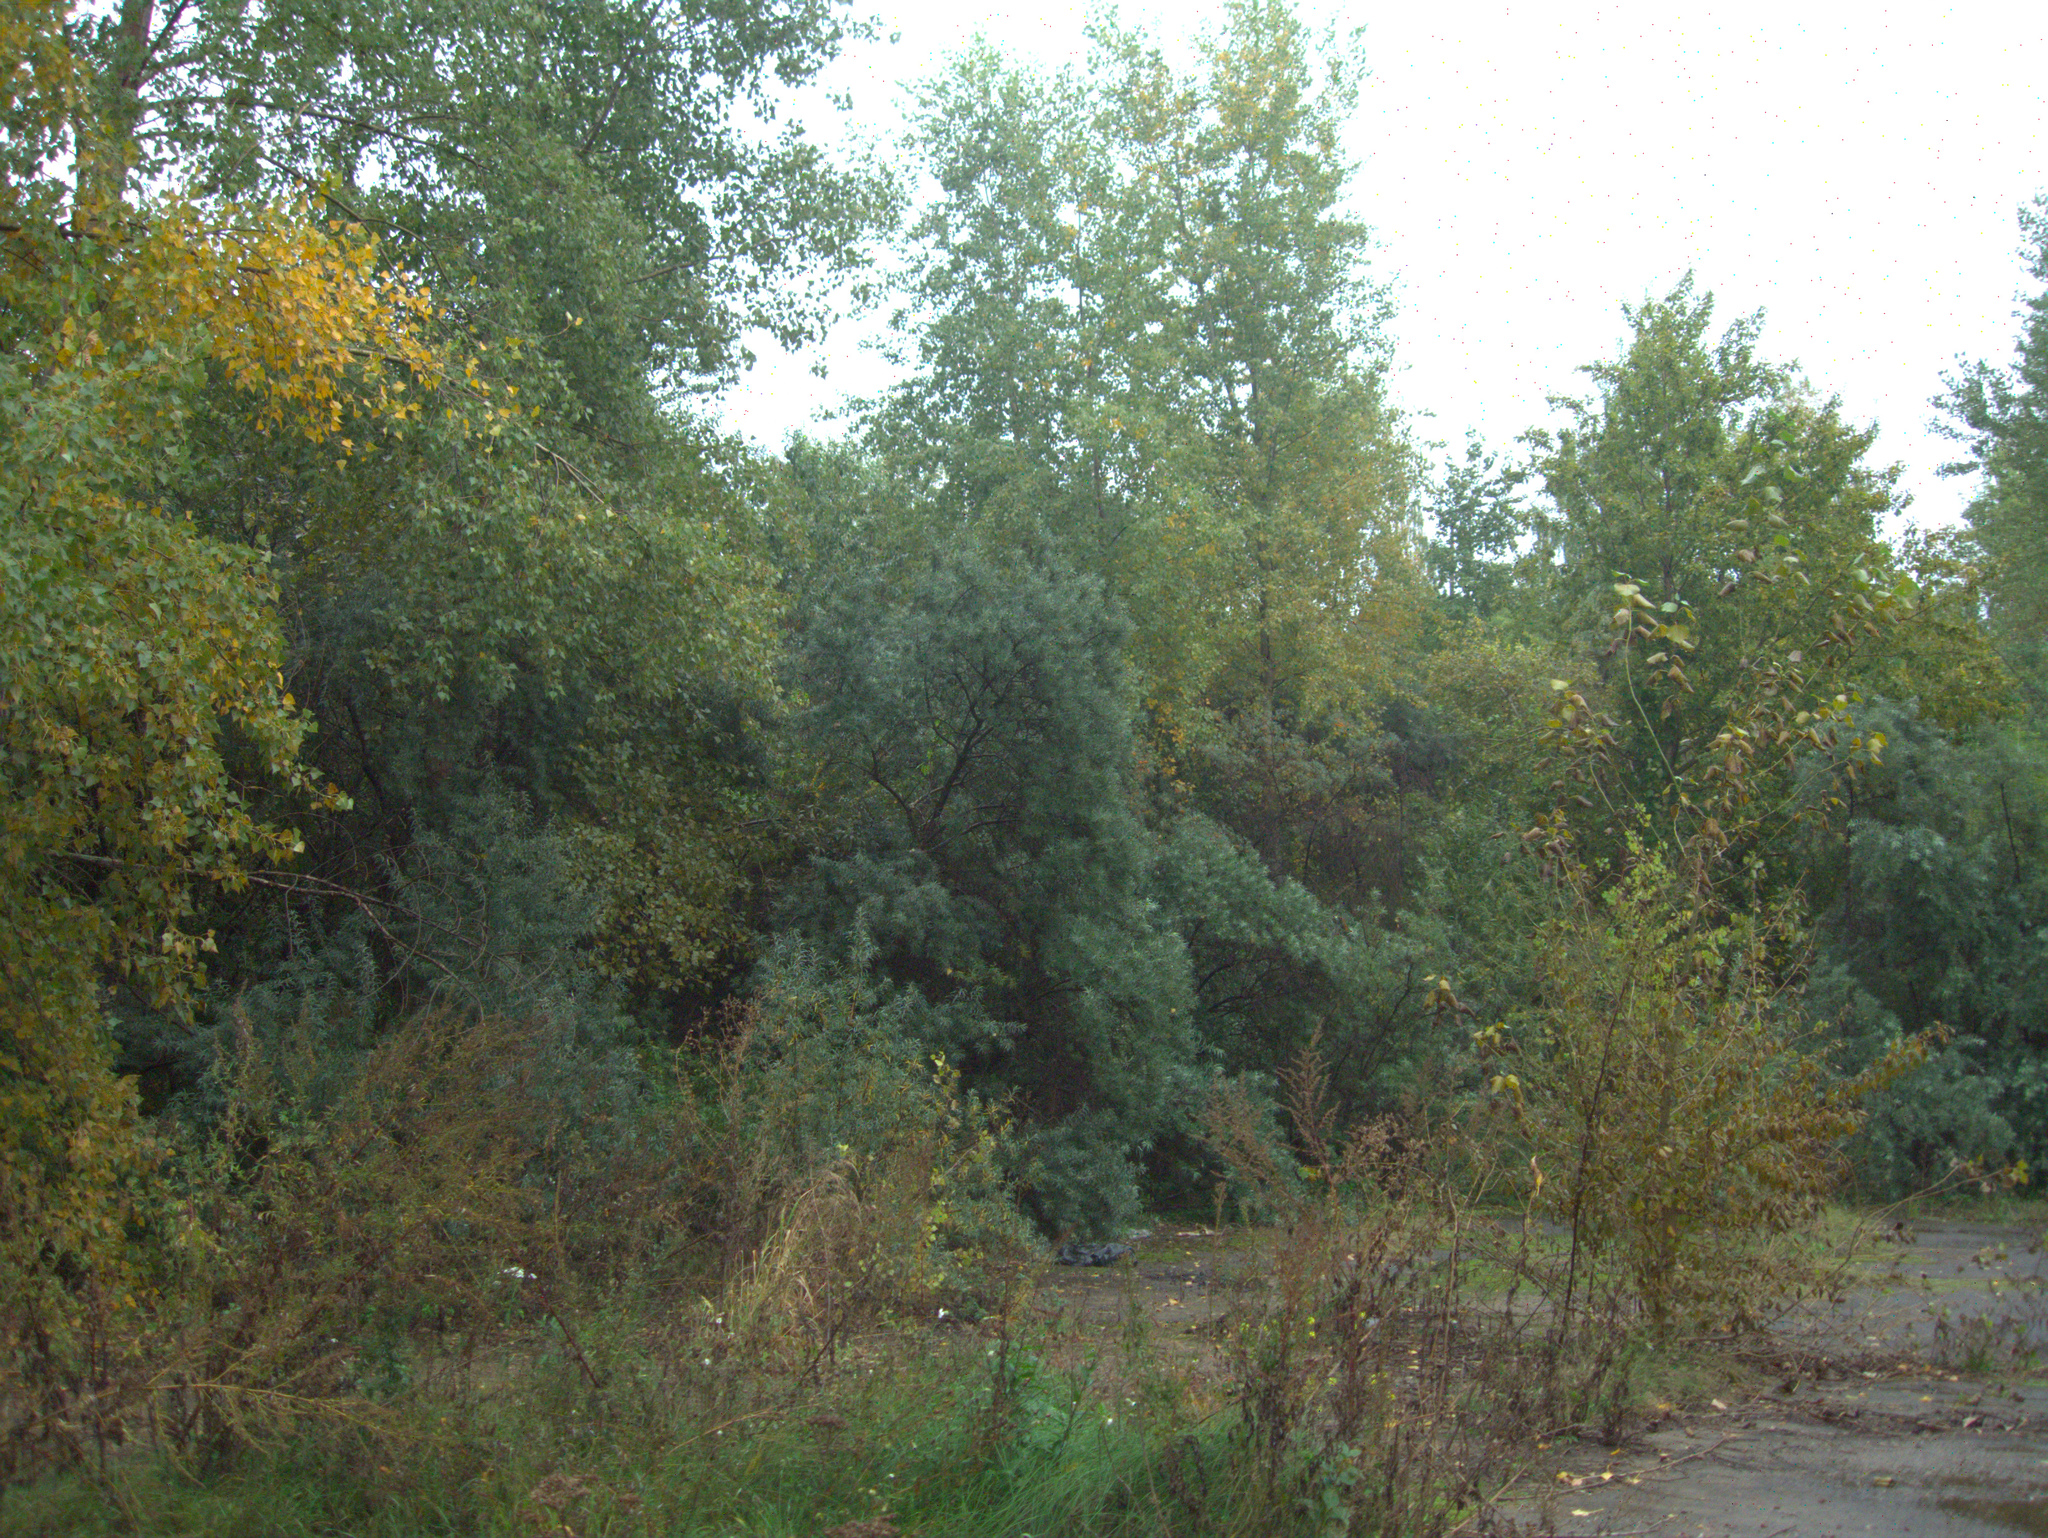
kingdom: Plantae
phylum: Tracheophyta
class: Magnoliopsida
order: Rosales
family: Elaeagnaceae
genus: Hippophae
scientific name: Hippophae rhamnoides
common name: Sea-buckthorn
